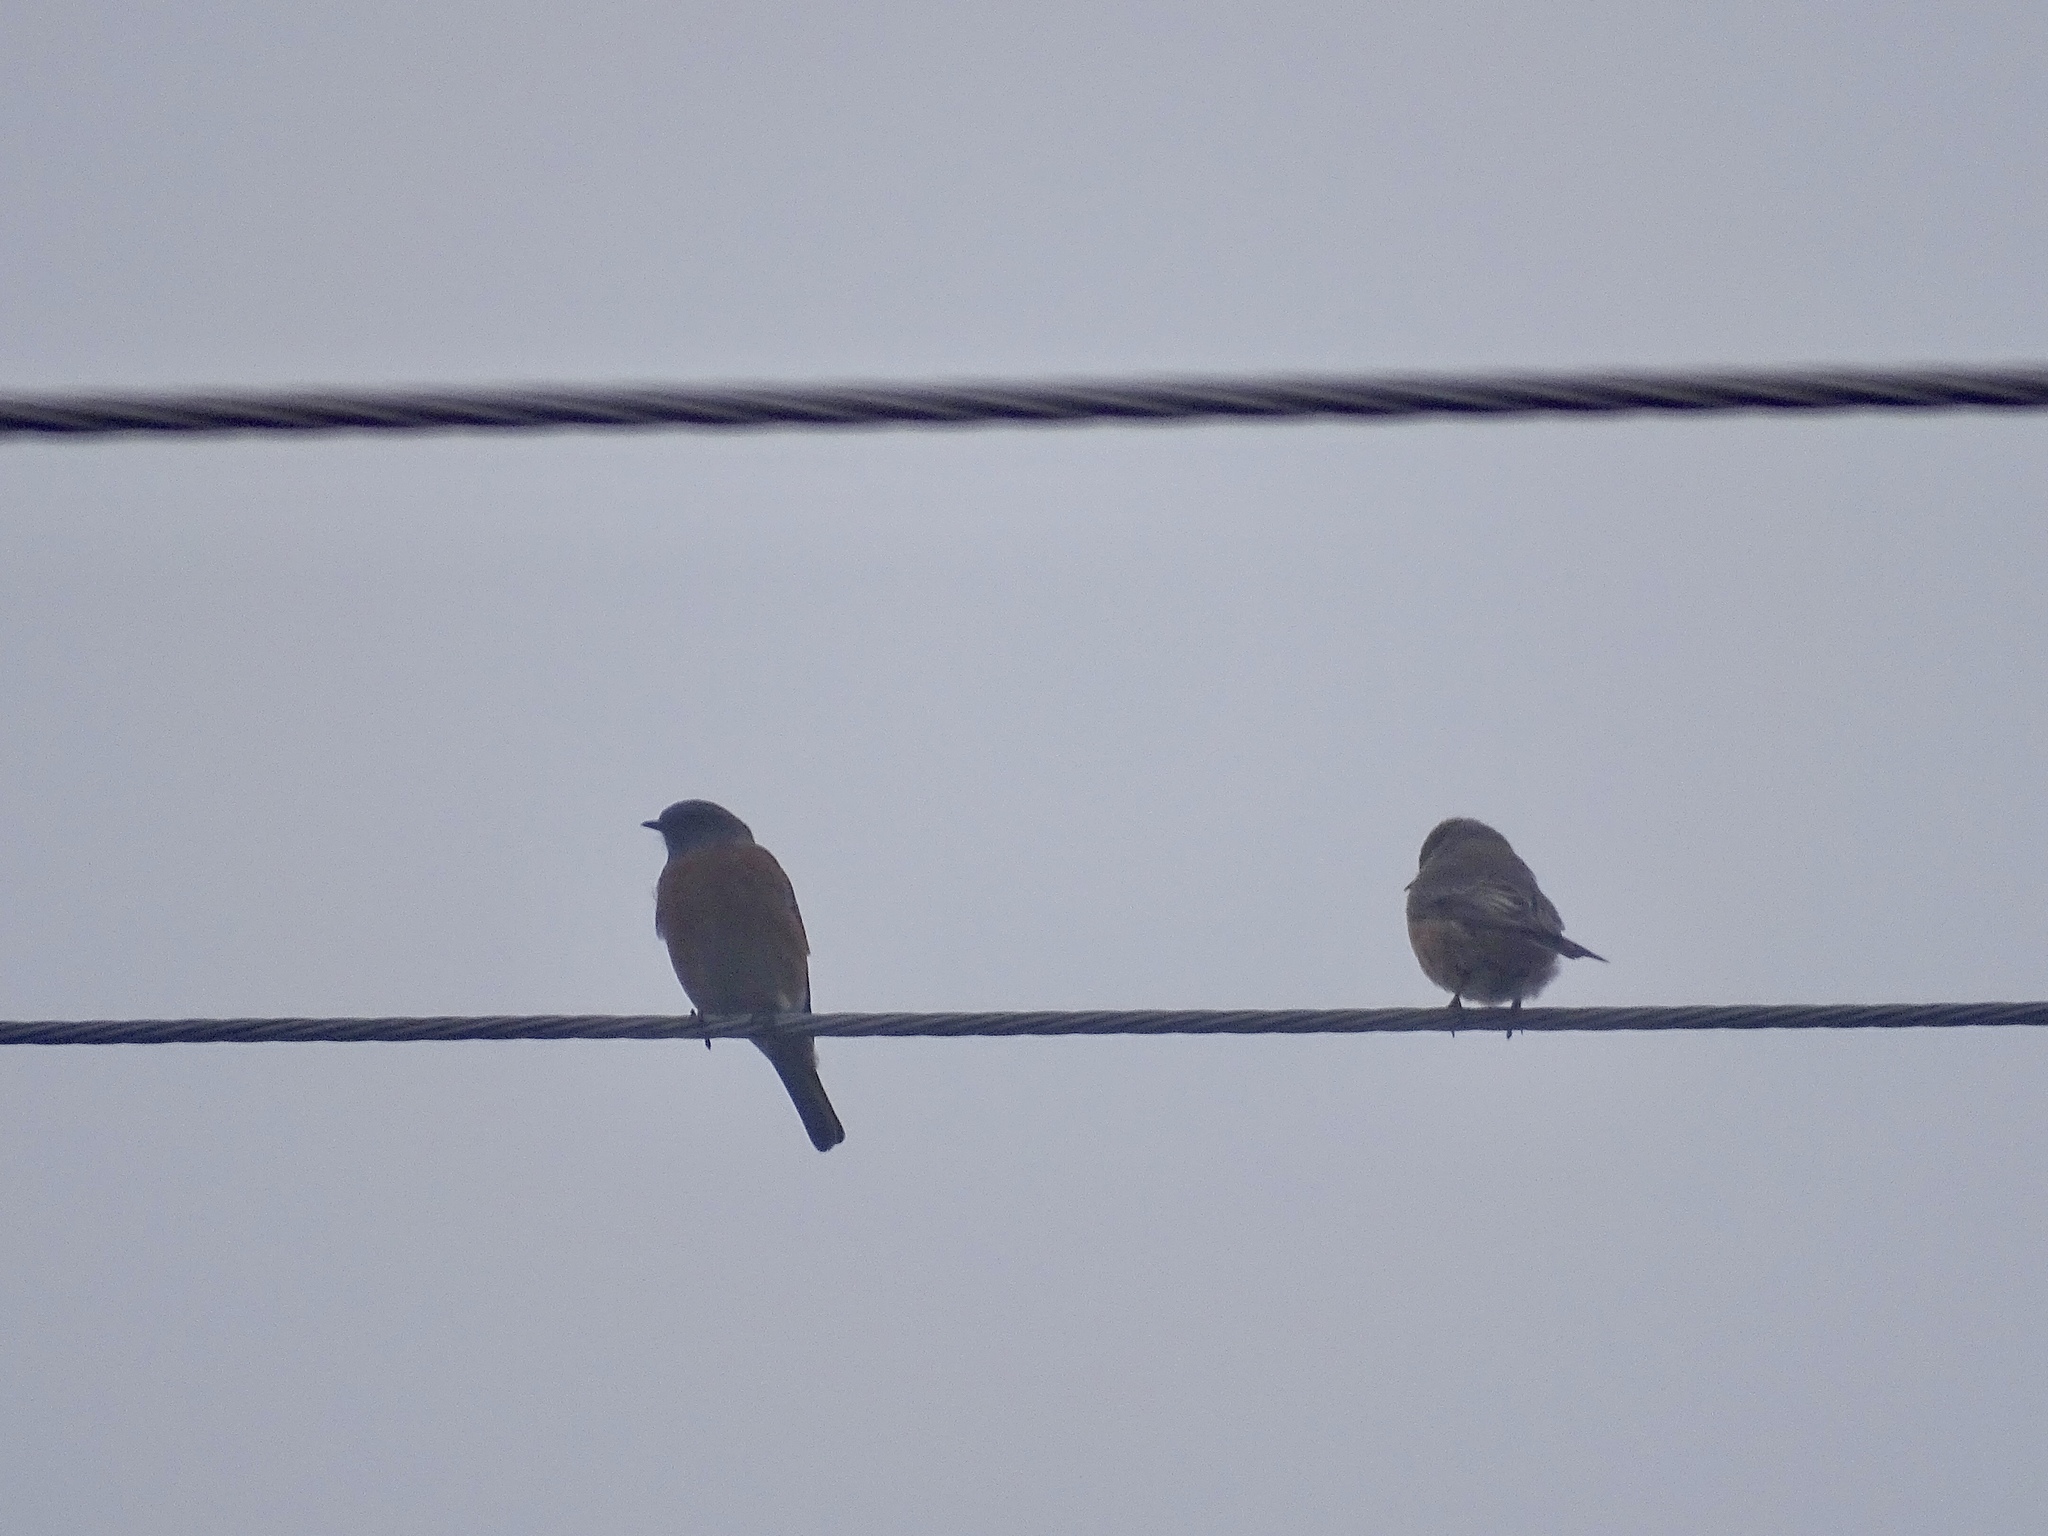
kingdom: Animalia
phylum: Chordata
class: Aves
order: Passeriformes
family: Turdidae
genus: Sialia
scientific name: Sialia mexicana
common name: Western bluebird
